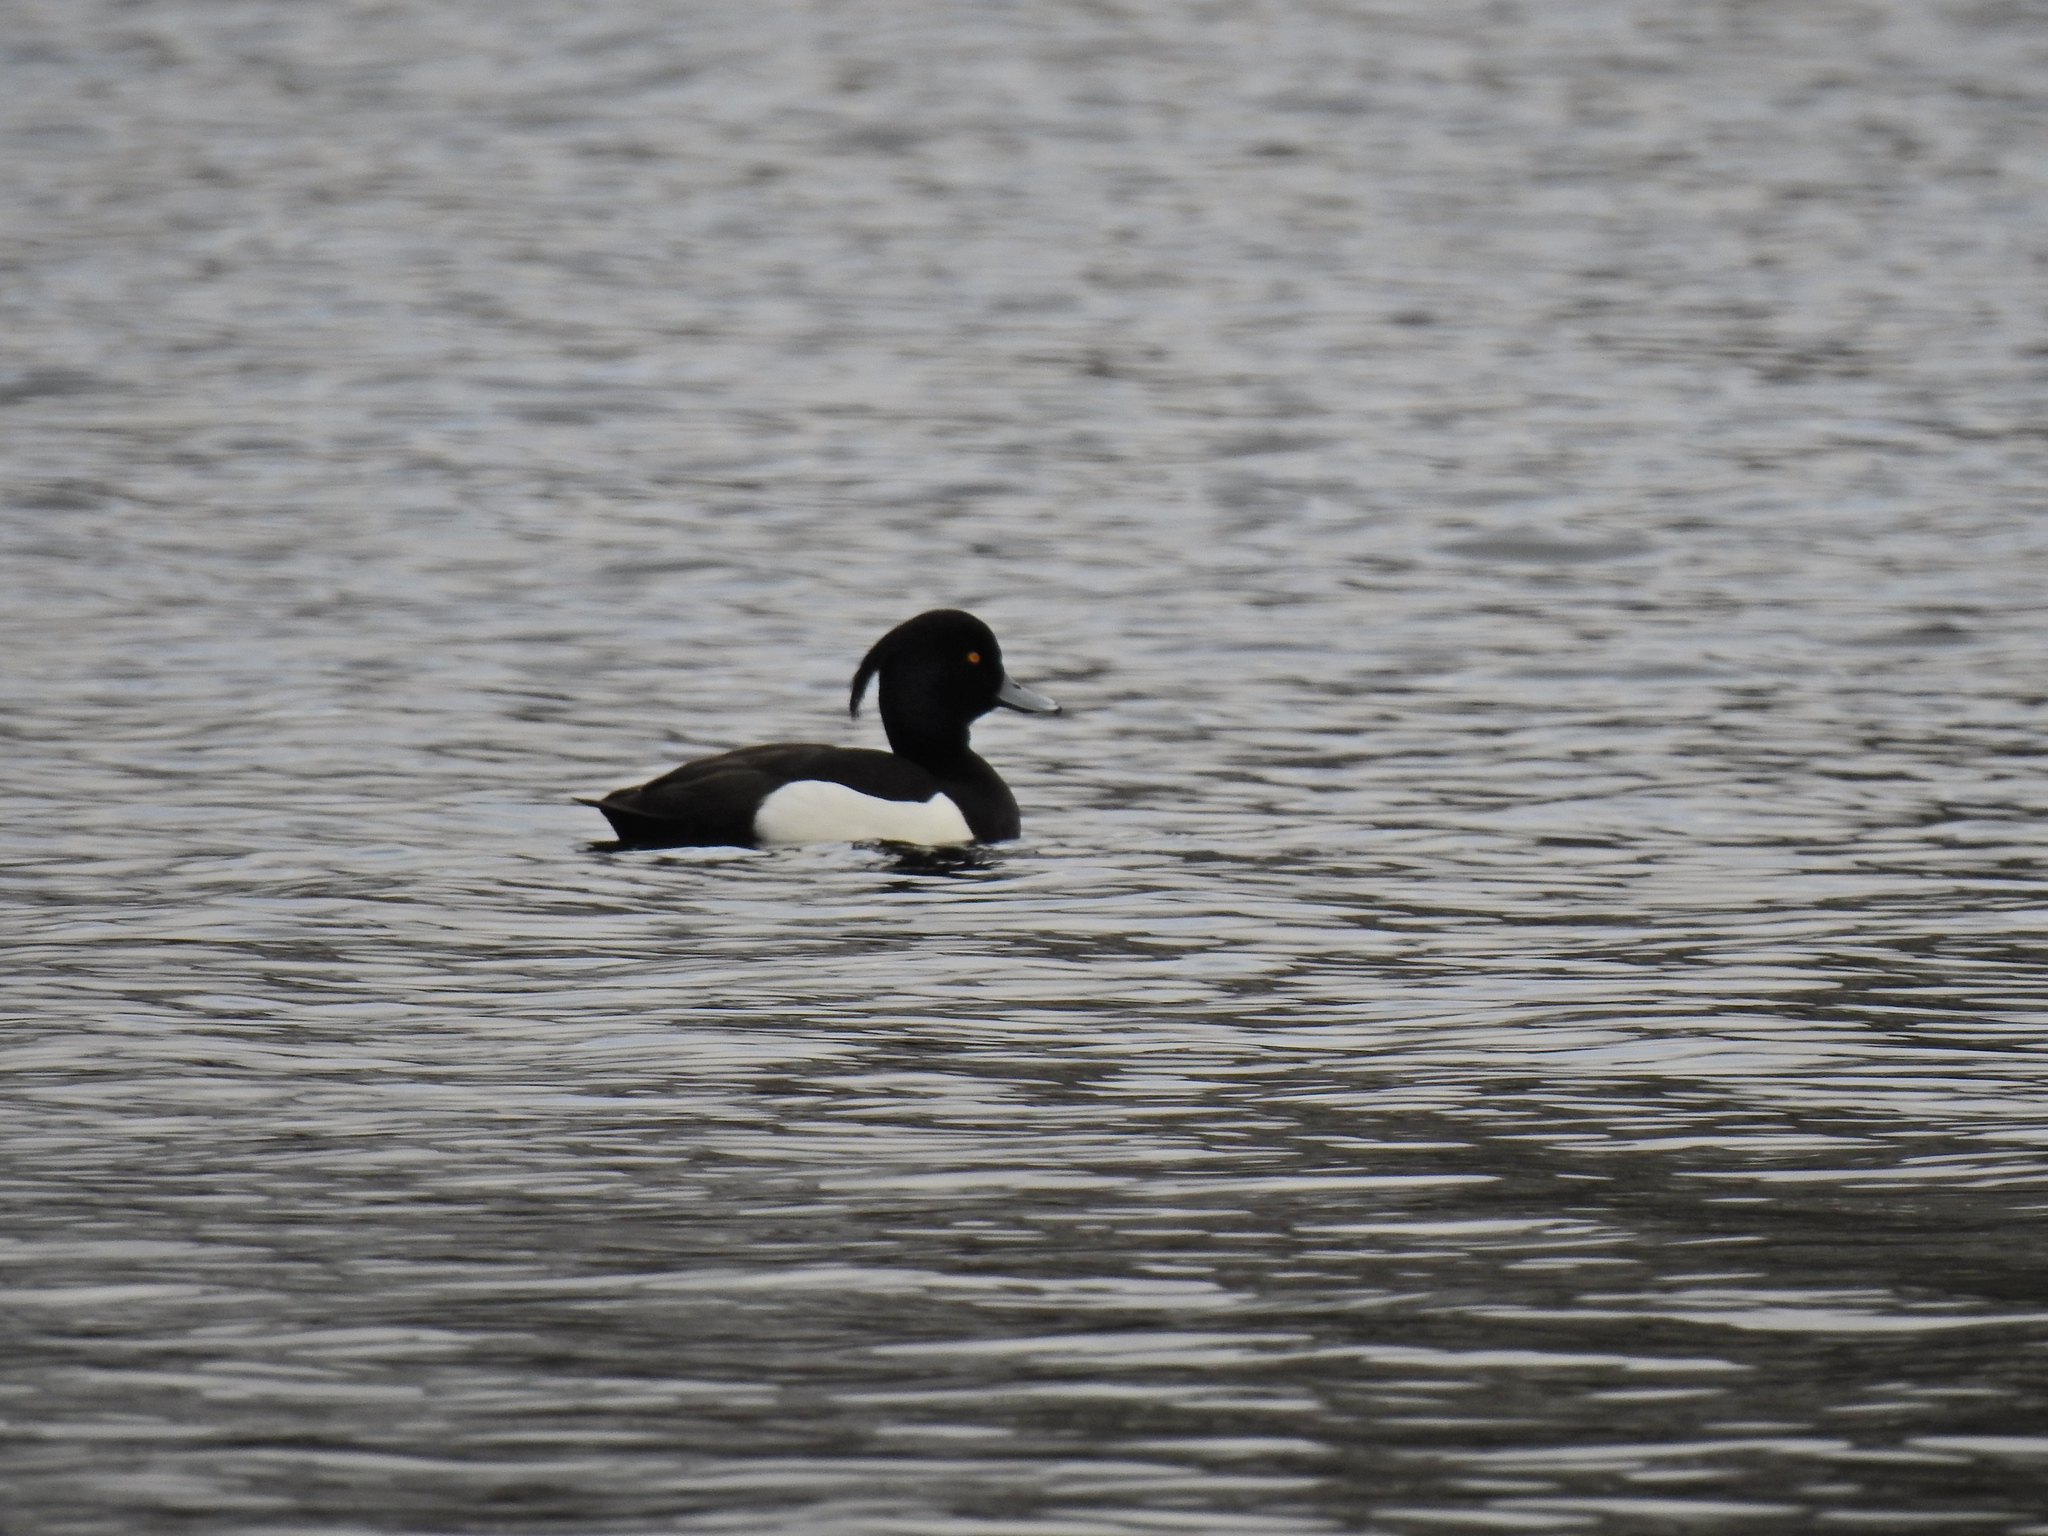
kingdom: Animalia
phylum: Chordata
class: Aves
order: Anseriformes
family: Anatidae
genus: Aythya
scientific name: Aythya fuligula
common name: Tufted duck
